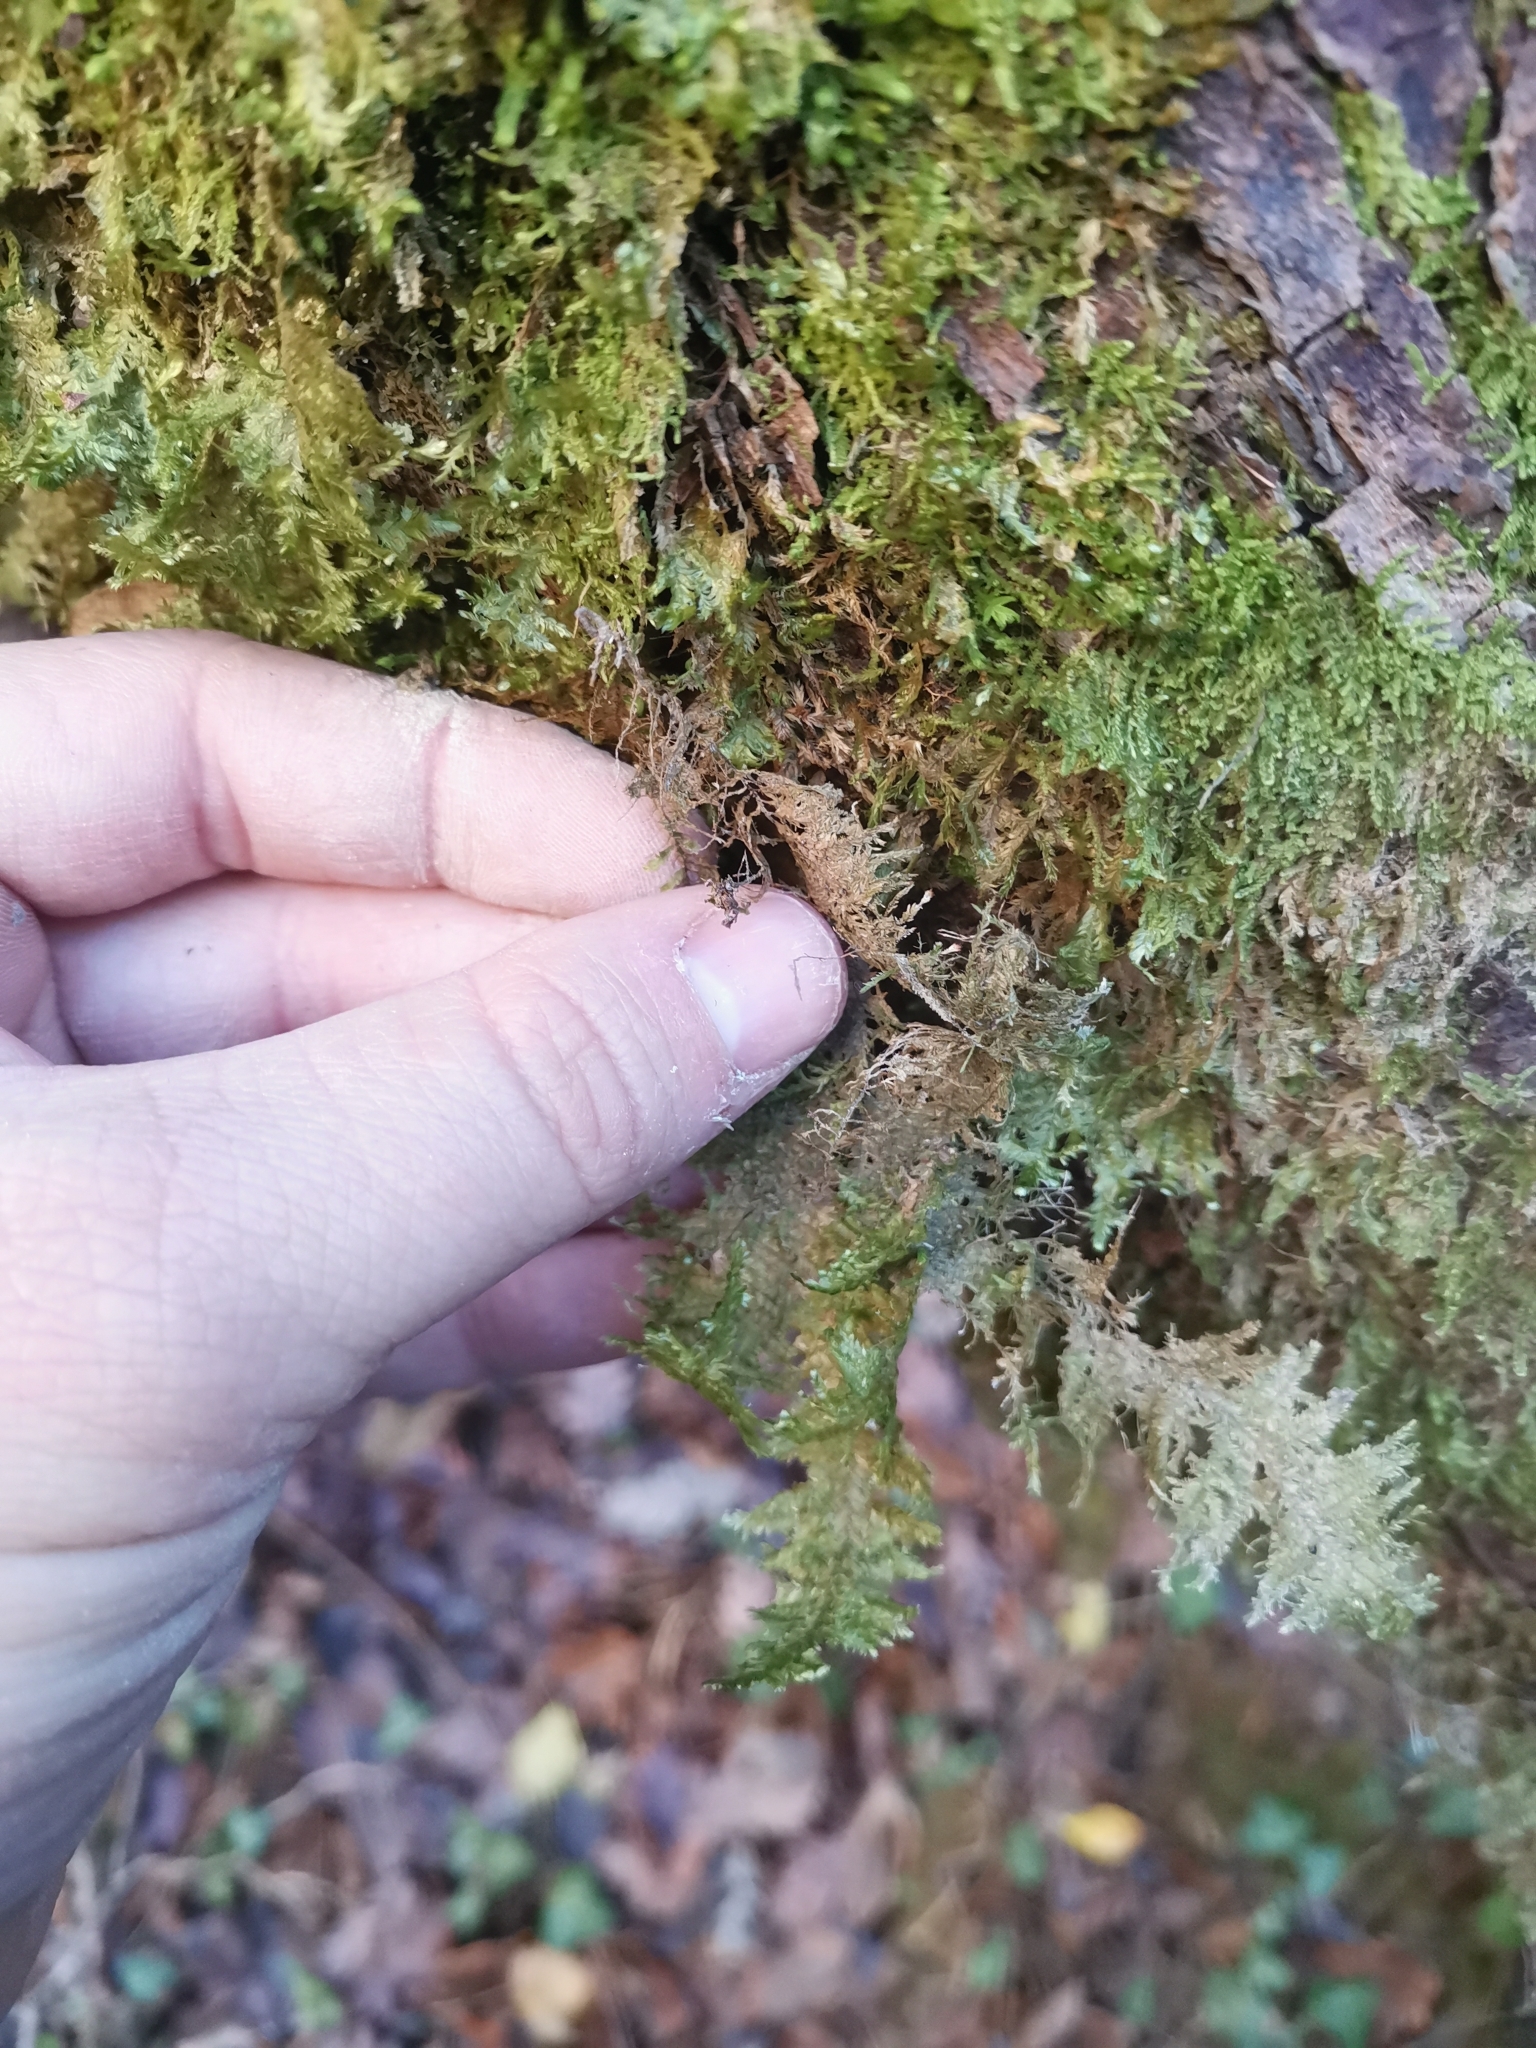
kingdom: Plantae
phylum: Bryophyta
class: Bryopsida
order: Hypnales
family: Neckeraceae
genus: Alleniella
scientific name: Alleniella complanata
